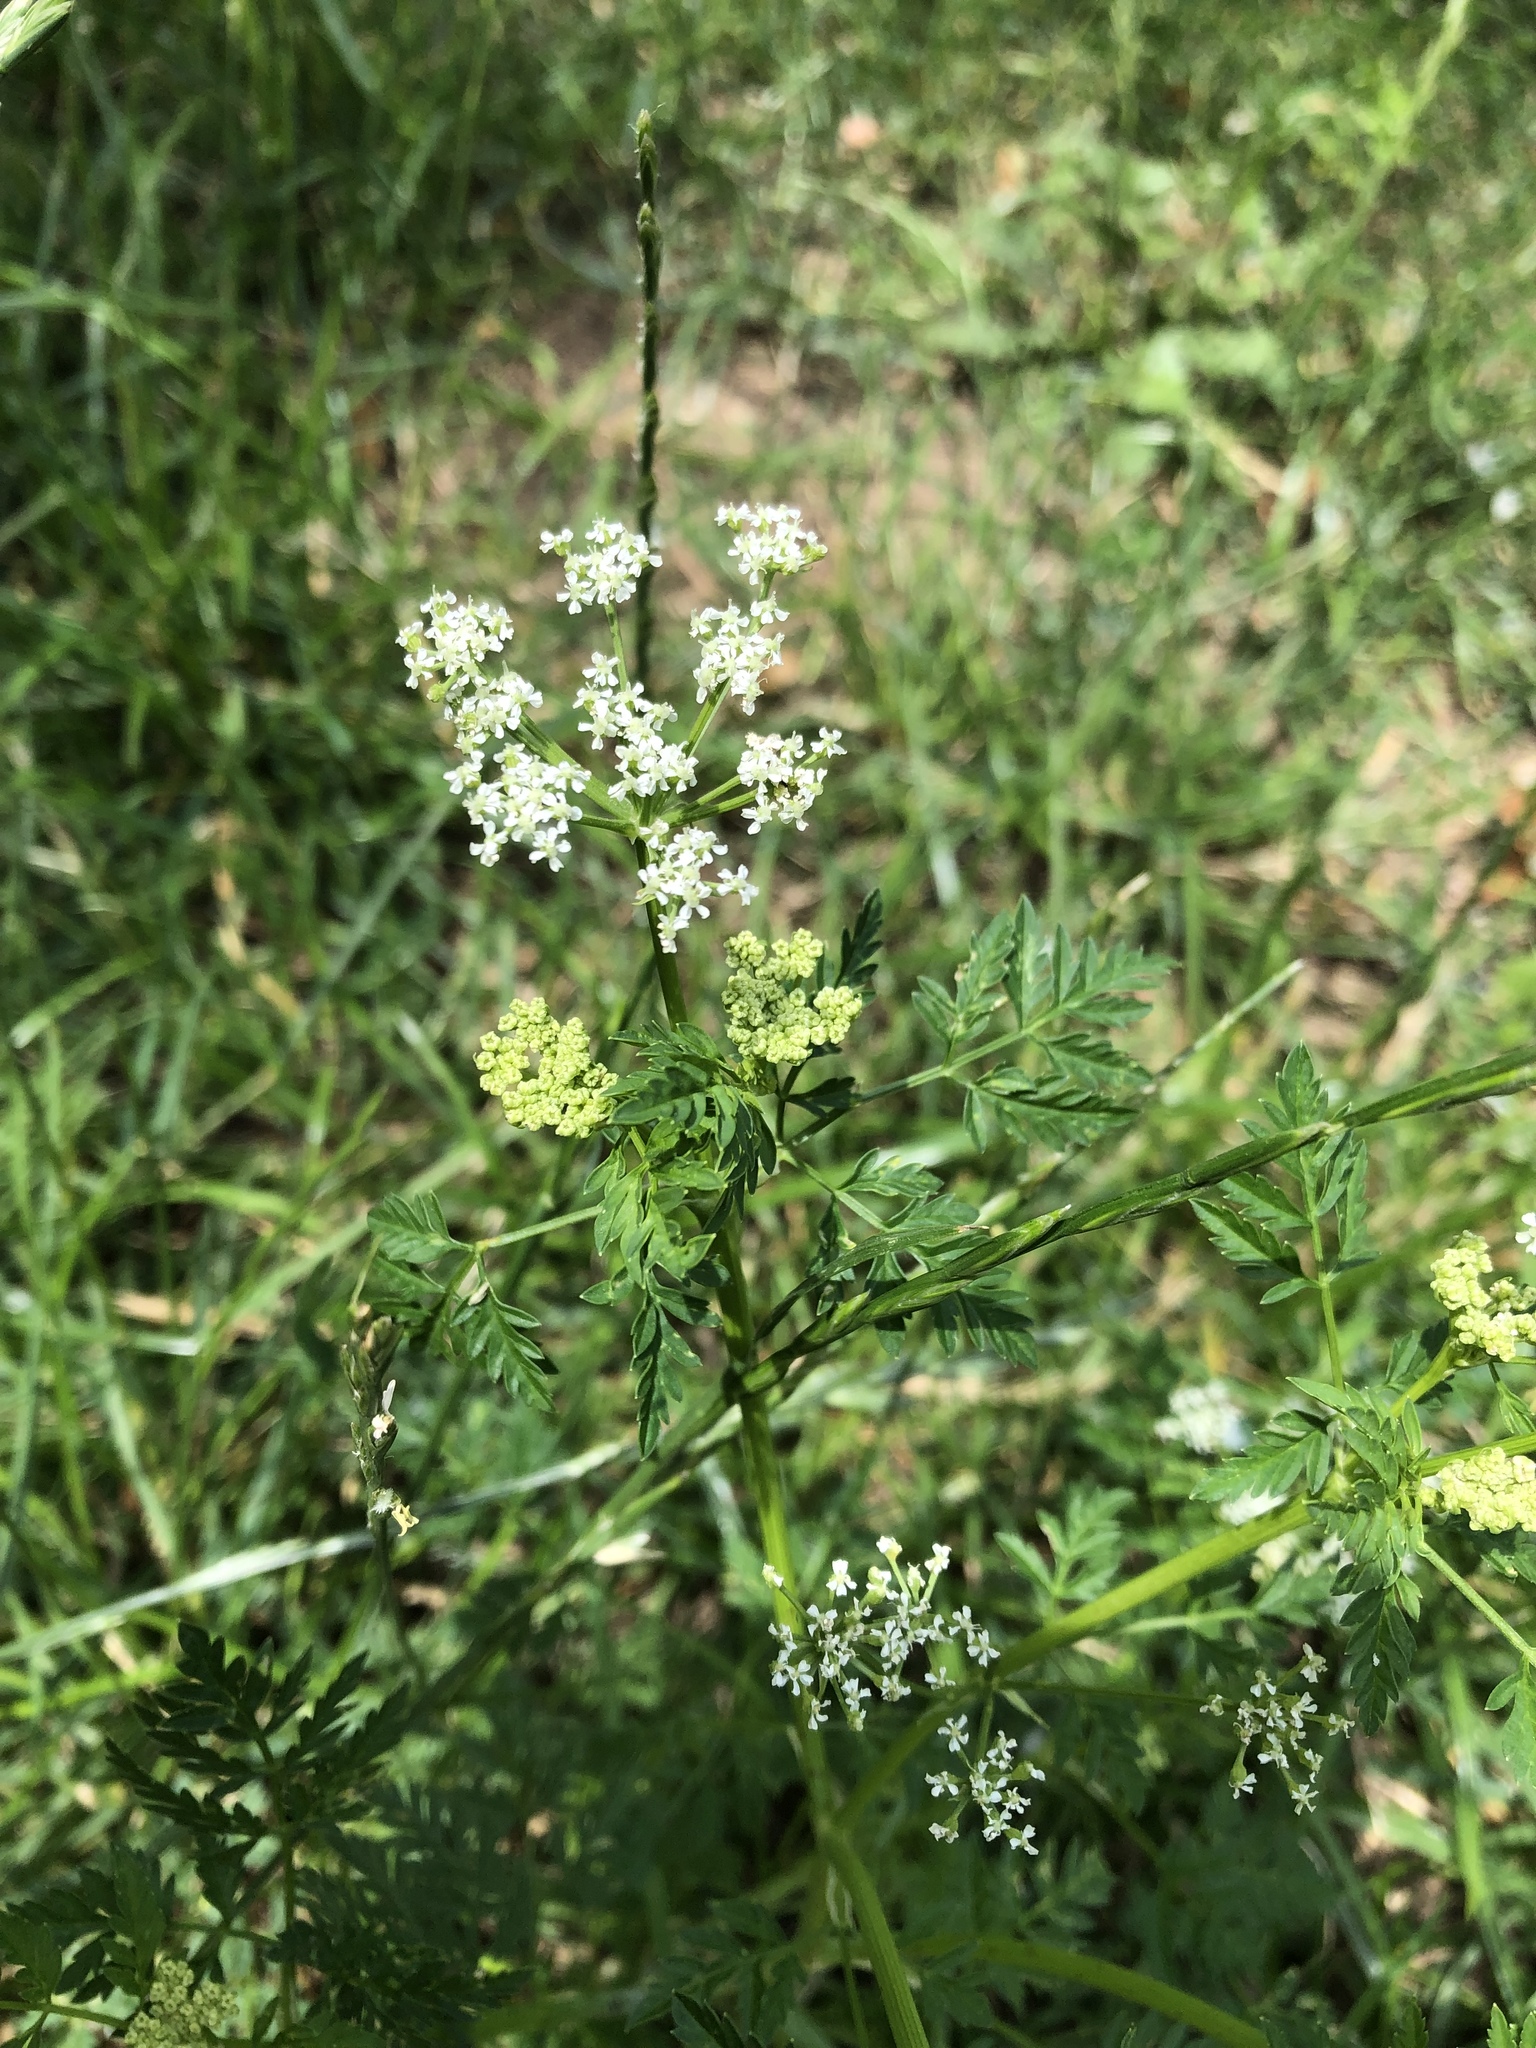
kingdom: Plantae
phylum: Tracheophyta
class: Magnoliopsida
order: Apiales
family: Apiaceae
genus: Conium
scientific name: Conium maculatum
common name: Hemlock
